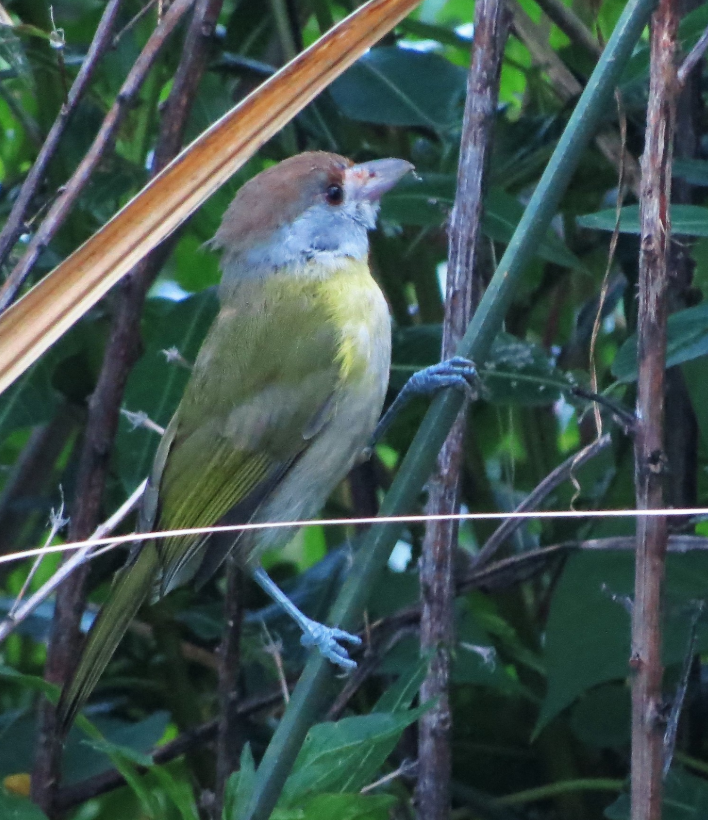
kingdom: Animalia
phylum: Chordata
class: Aves
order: Passeriformes
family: Vireonidae
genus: Cyclarhis
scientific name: Cyclarhis gujanensis
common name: Rufous-browed peppershrike
